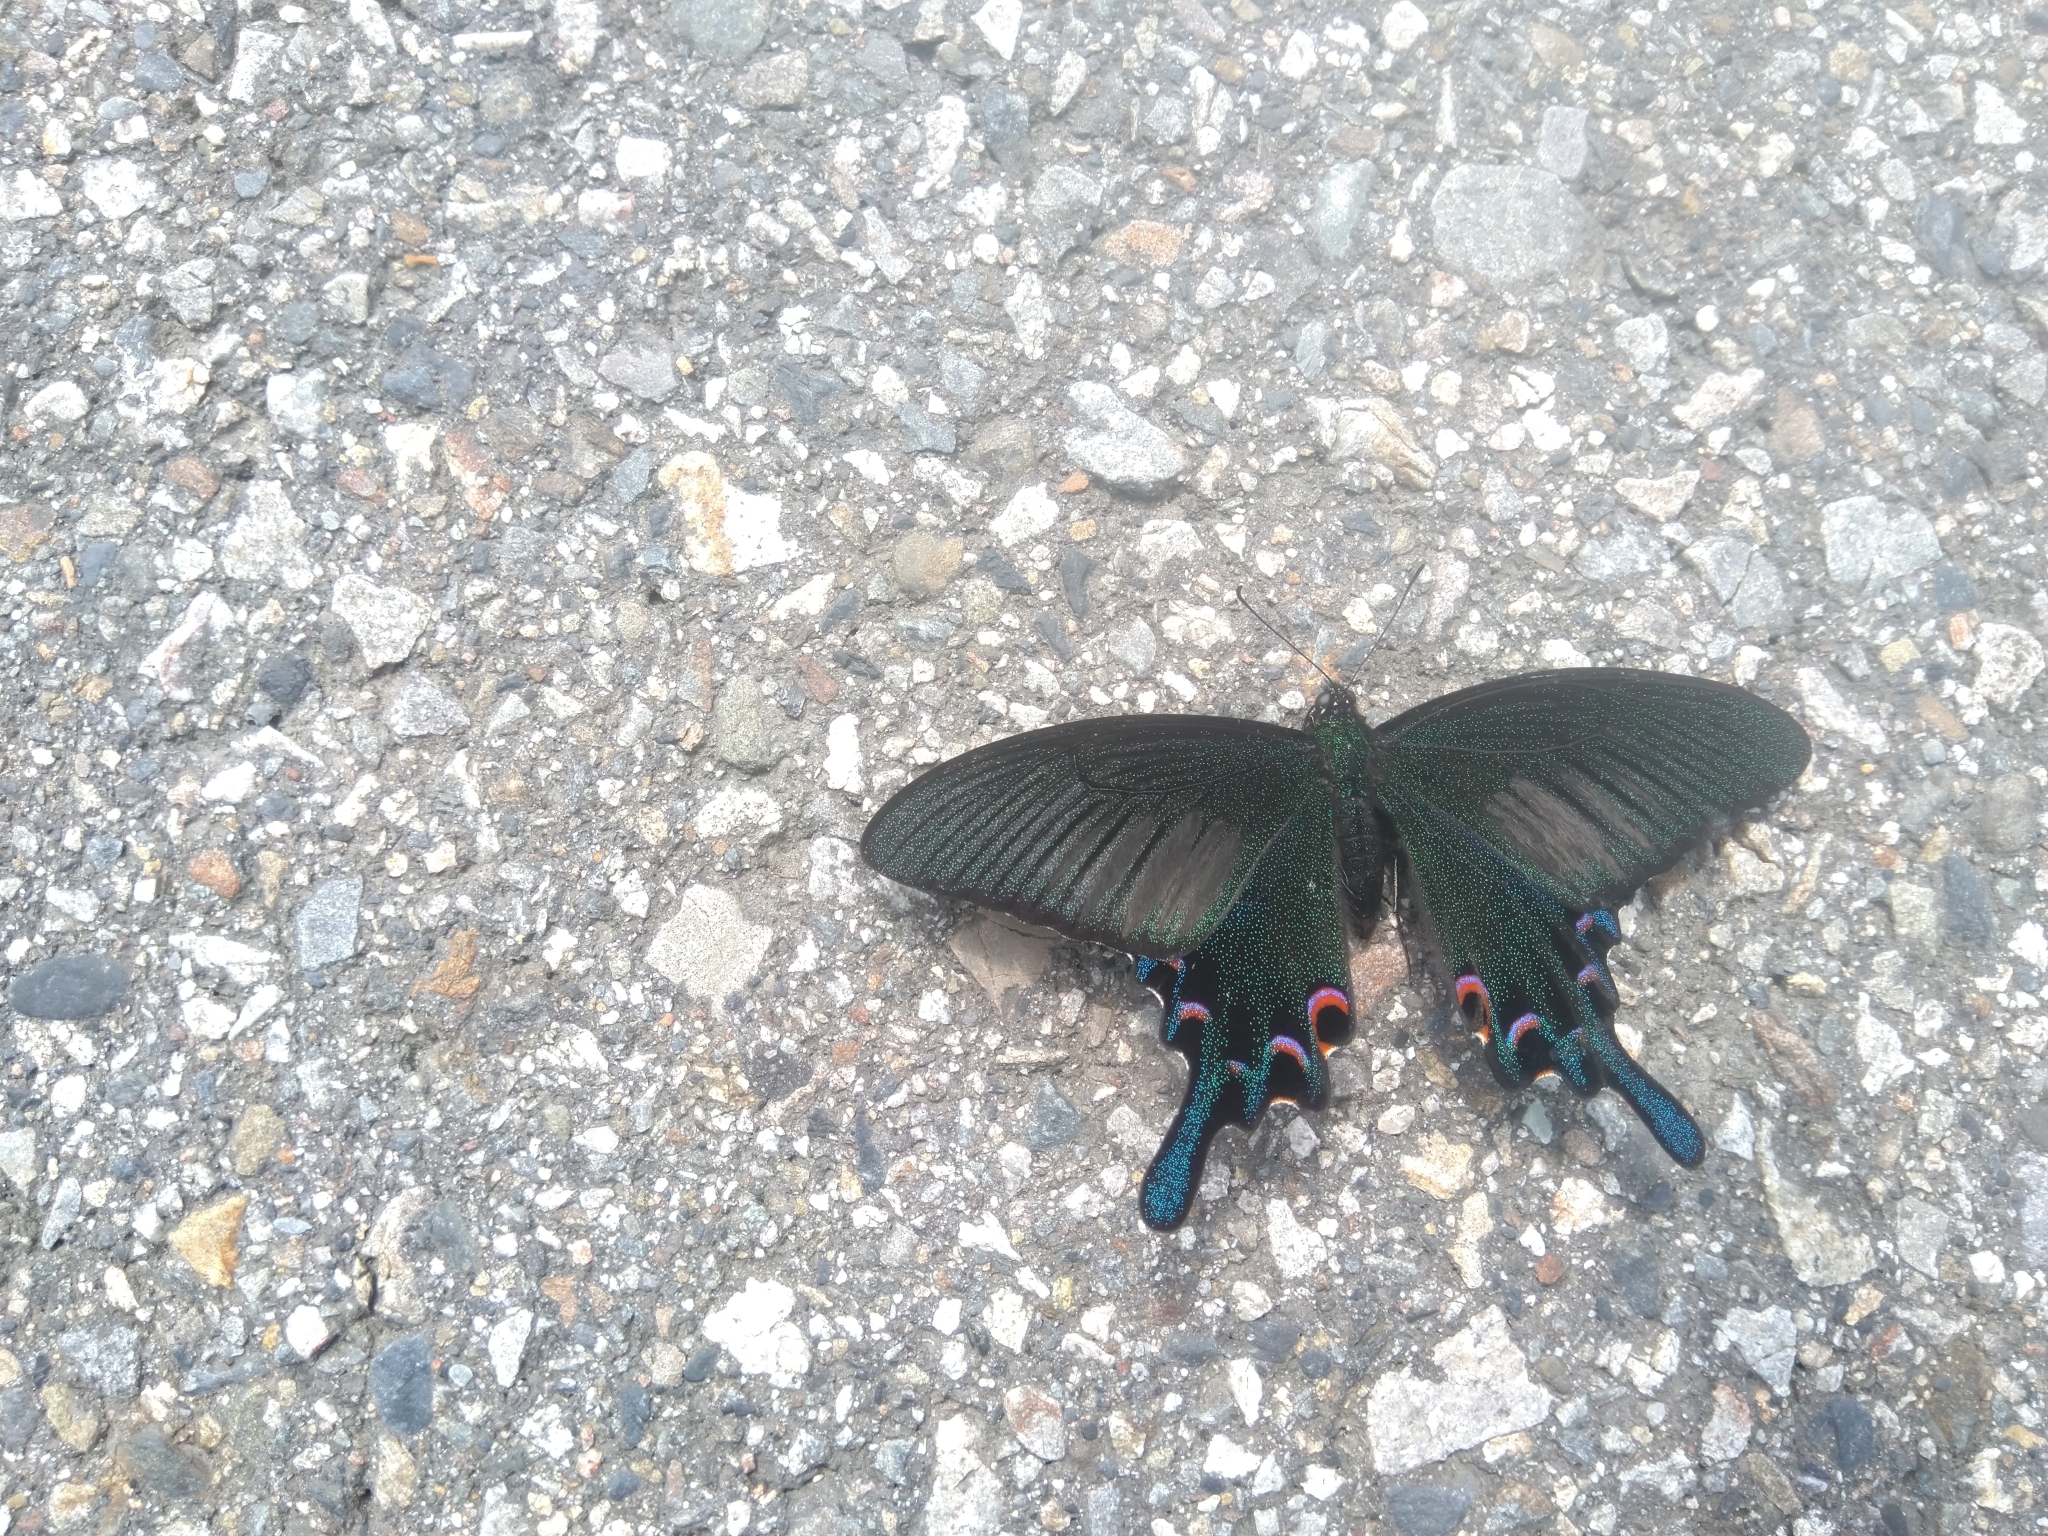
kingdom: Animalia
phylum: Arthropoda
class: Insecta
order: Lepidoptera
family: Papilionidae
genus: Papilio
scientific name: Papilio bianor
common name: Common peacock
